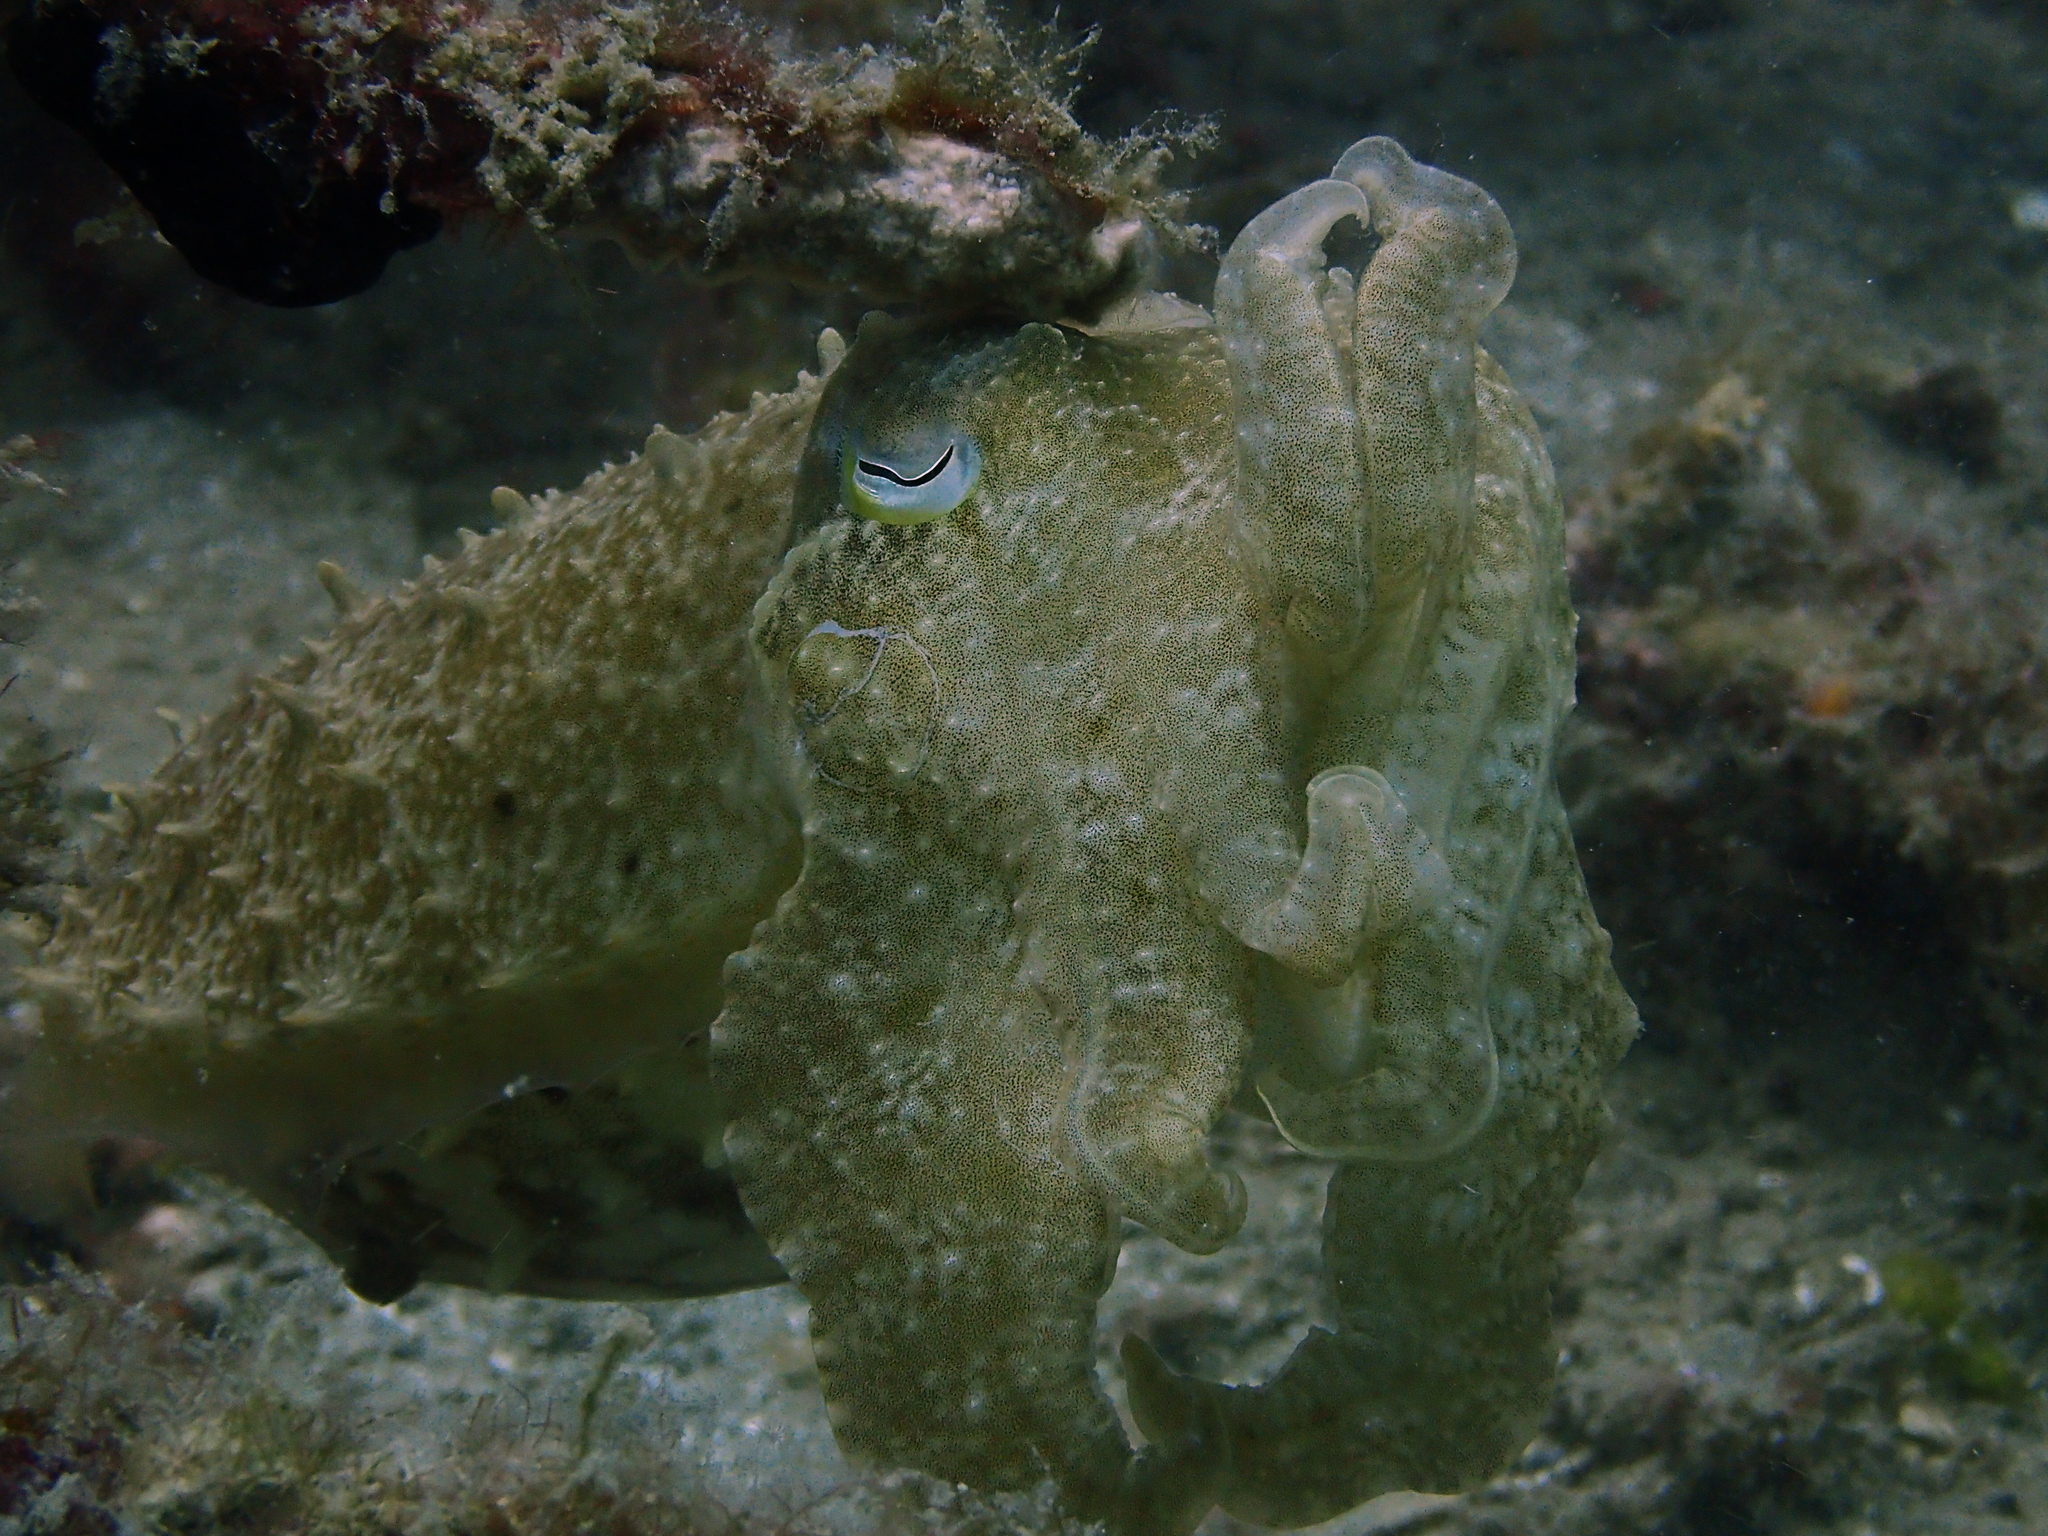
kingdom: Animalia
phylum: Mollusca
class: Cephalopoda
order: Sepiida
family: Sepiidae
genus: Ascarosepion
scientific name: Ascarosepion latimanus
